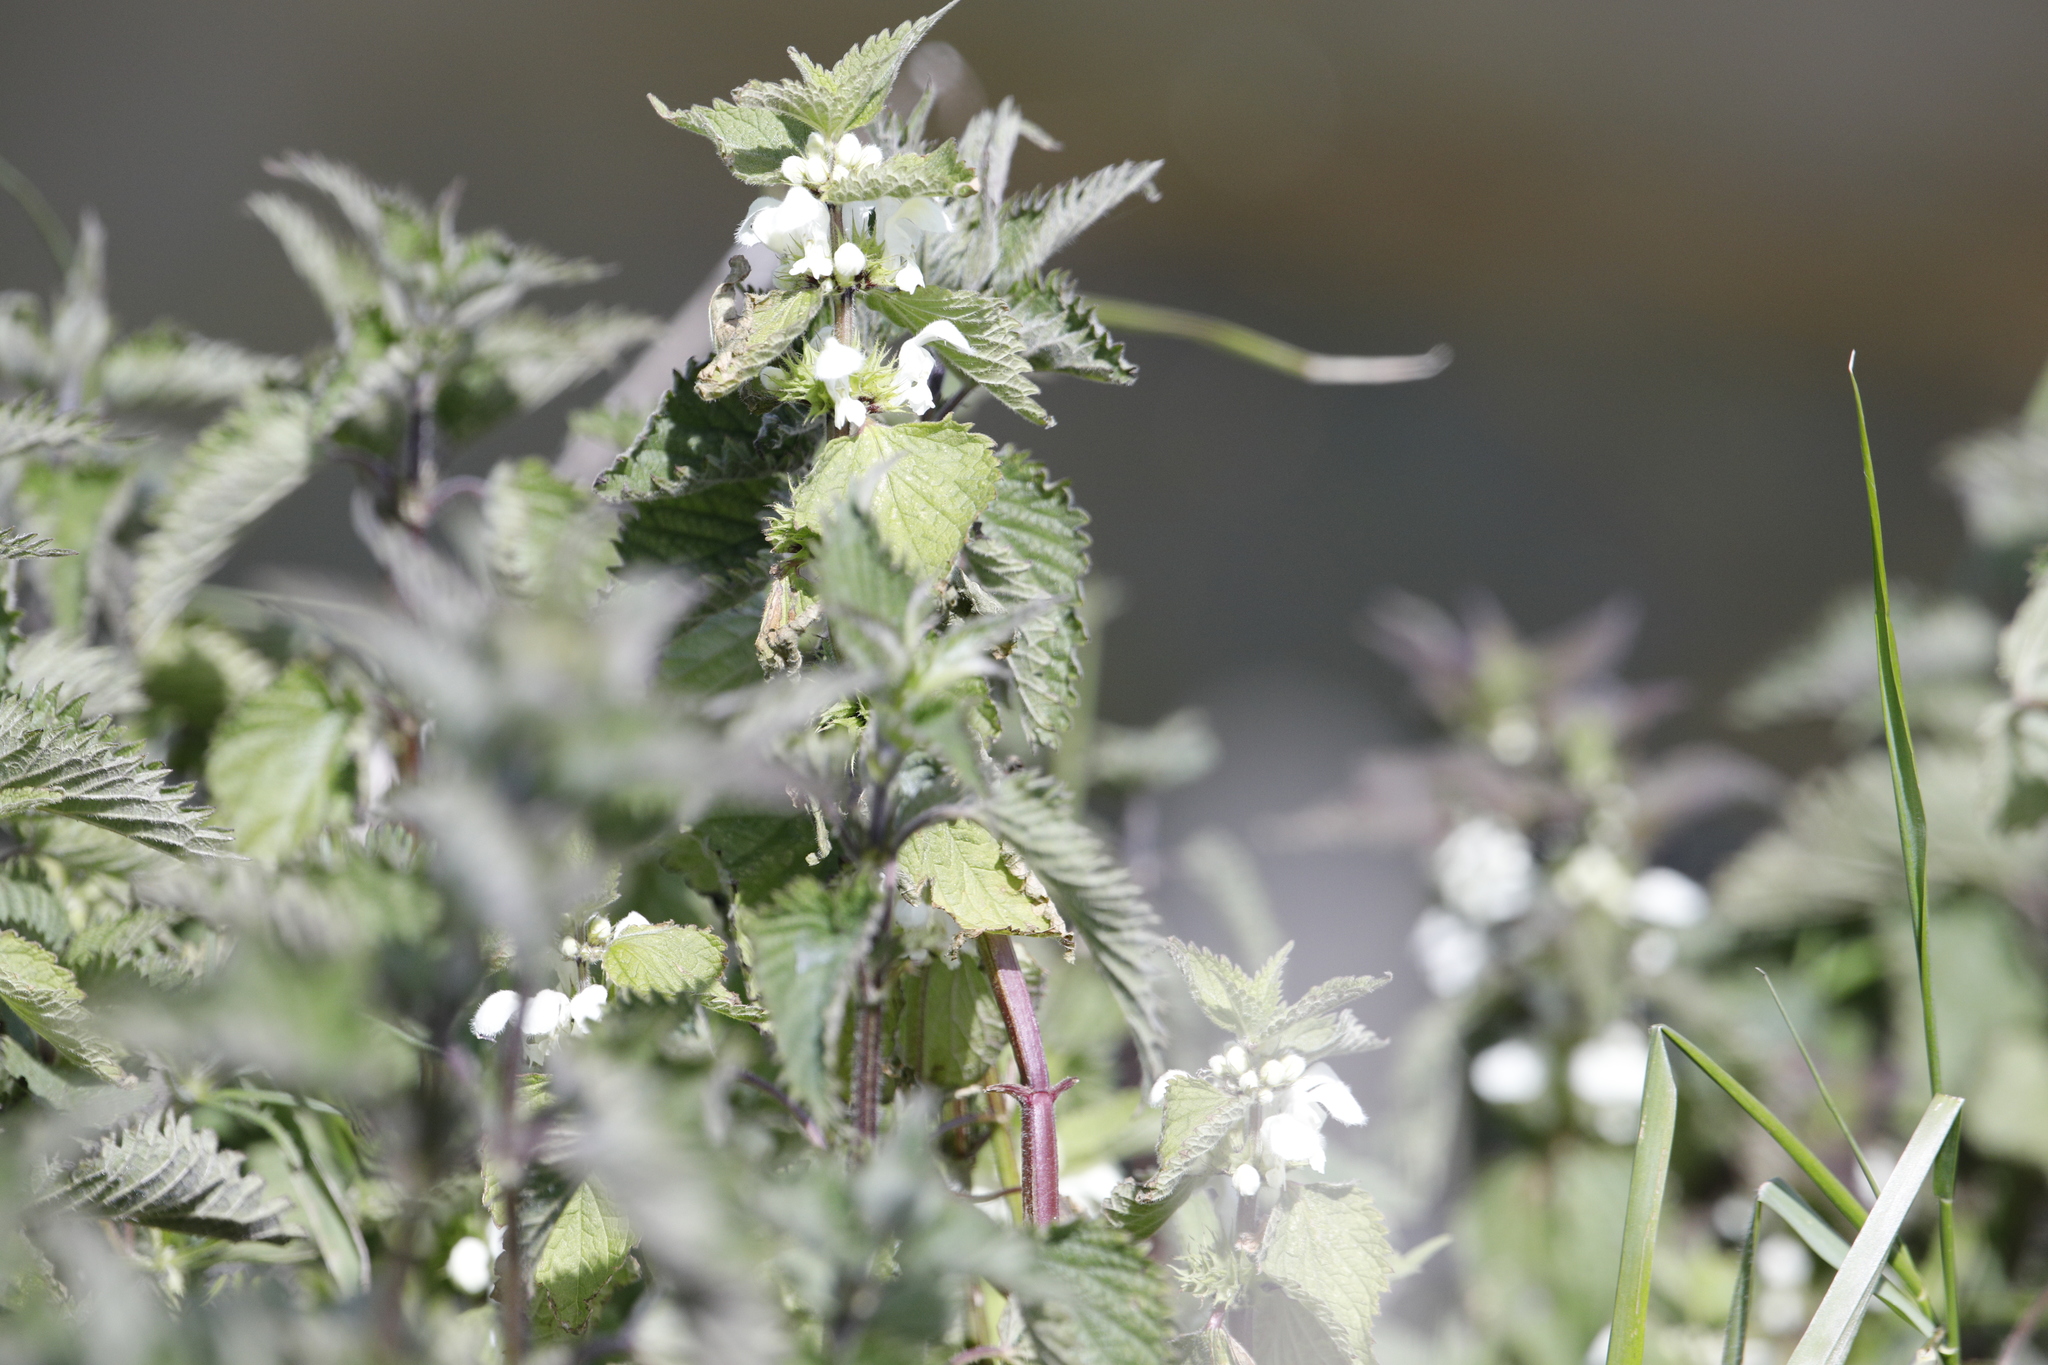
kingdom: Plantae
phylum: Tracheophyta
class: Magnoliopsida
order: Lamiales
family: Lamiaceae
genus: Lamium
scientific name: Lamium album
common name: White dead-nettle
